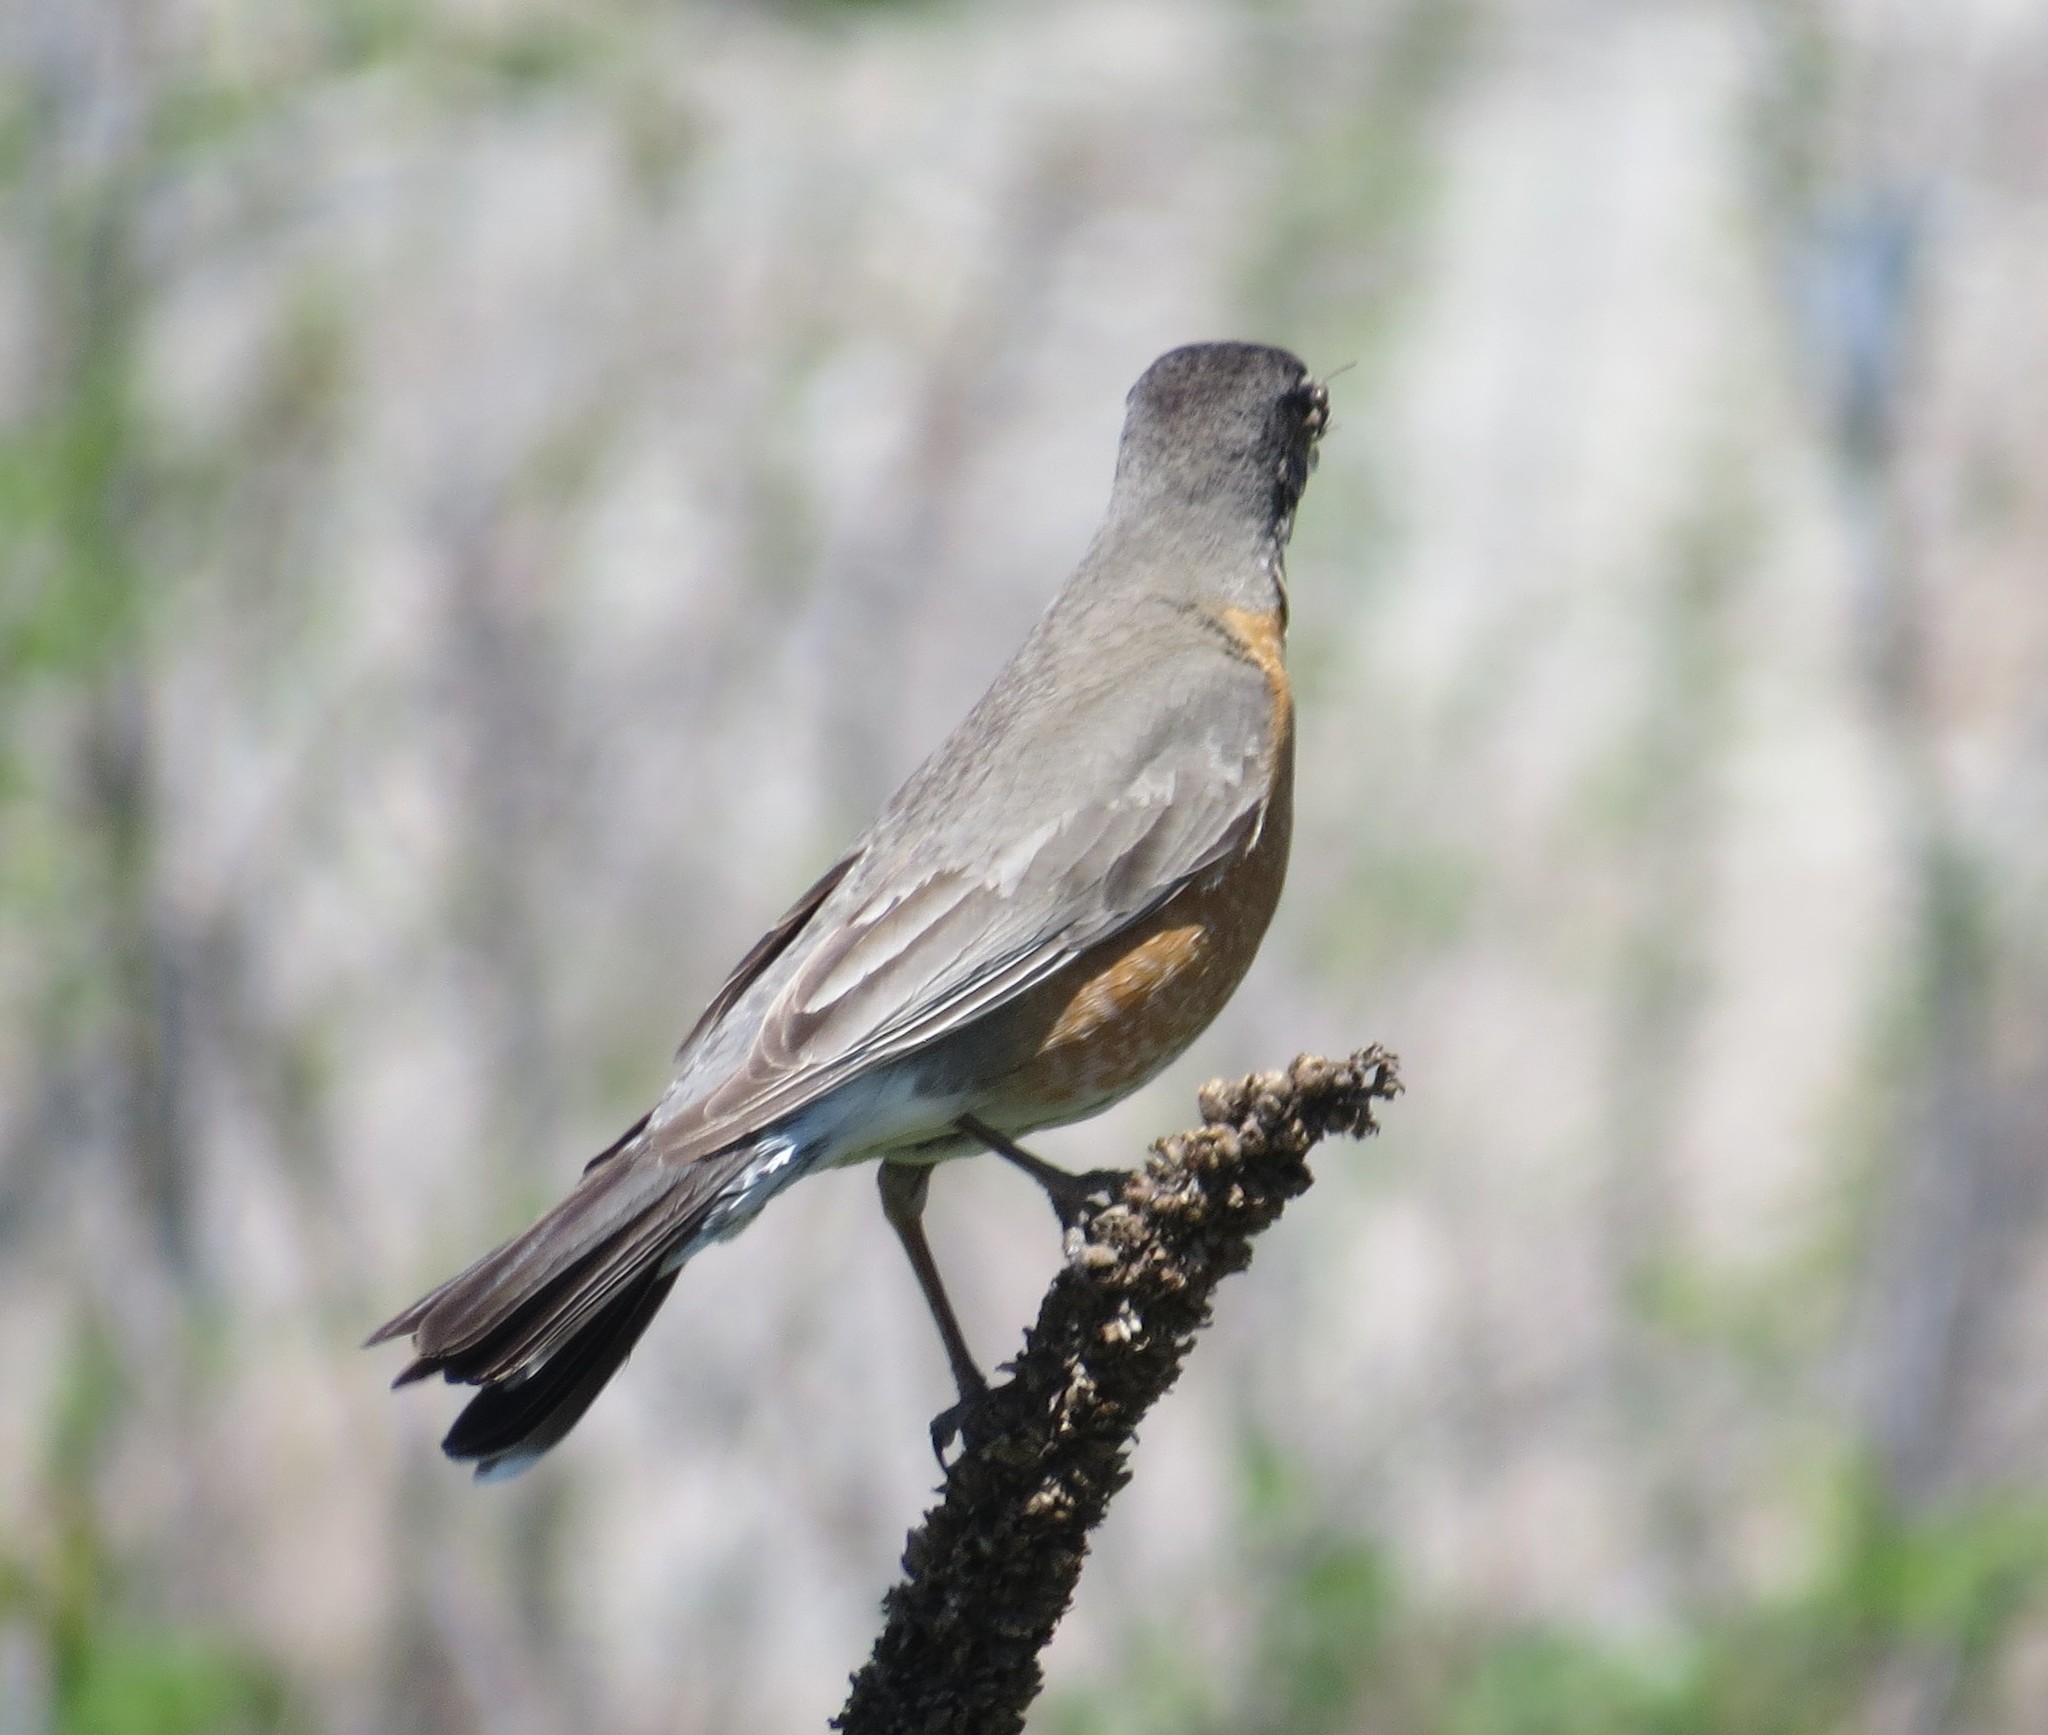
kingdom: Animalia
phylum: Chordata
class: Aves
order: Passeriformes
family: Turdidae
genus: Turdus
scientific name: Turdus migratorius
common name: American robin
